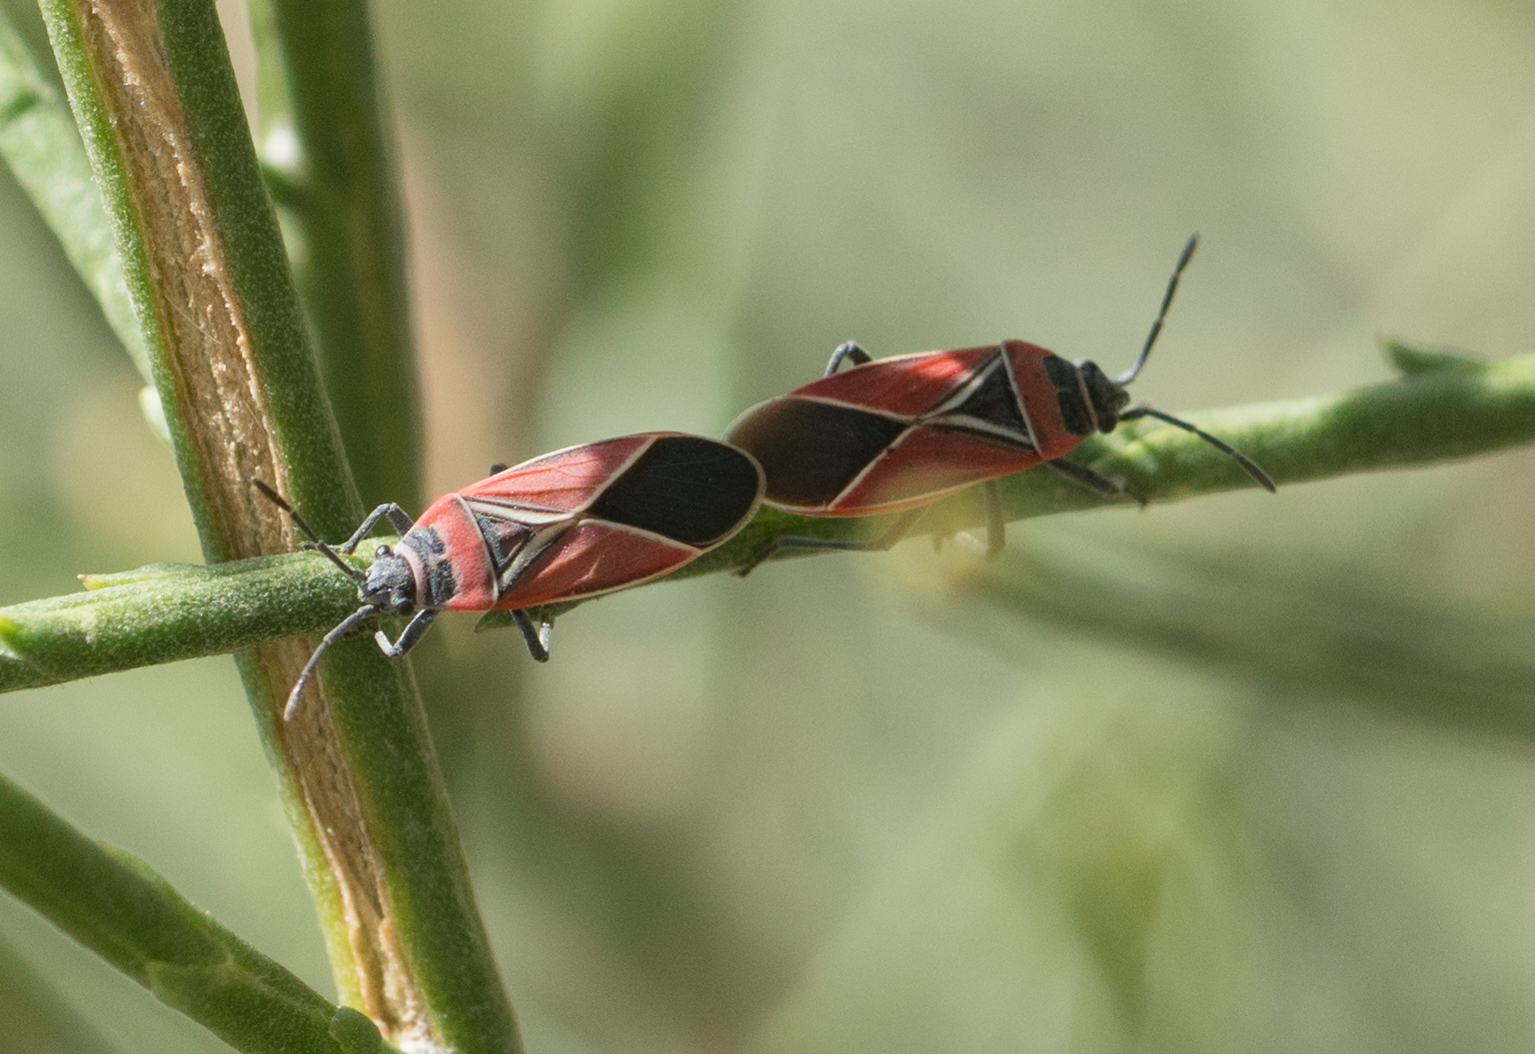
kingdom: Animalia
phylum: Arthropoda
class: Insecta
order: Hemiptera
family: Lygaeidae
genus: Neacoryphus
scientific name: Neacoryphus bicrucis
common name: Lygaeid bug
